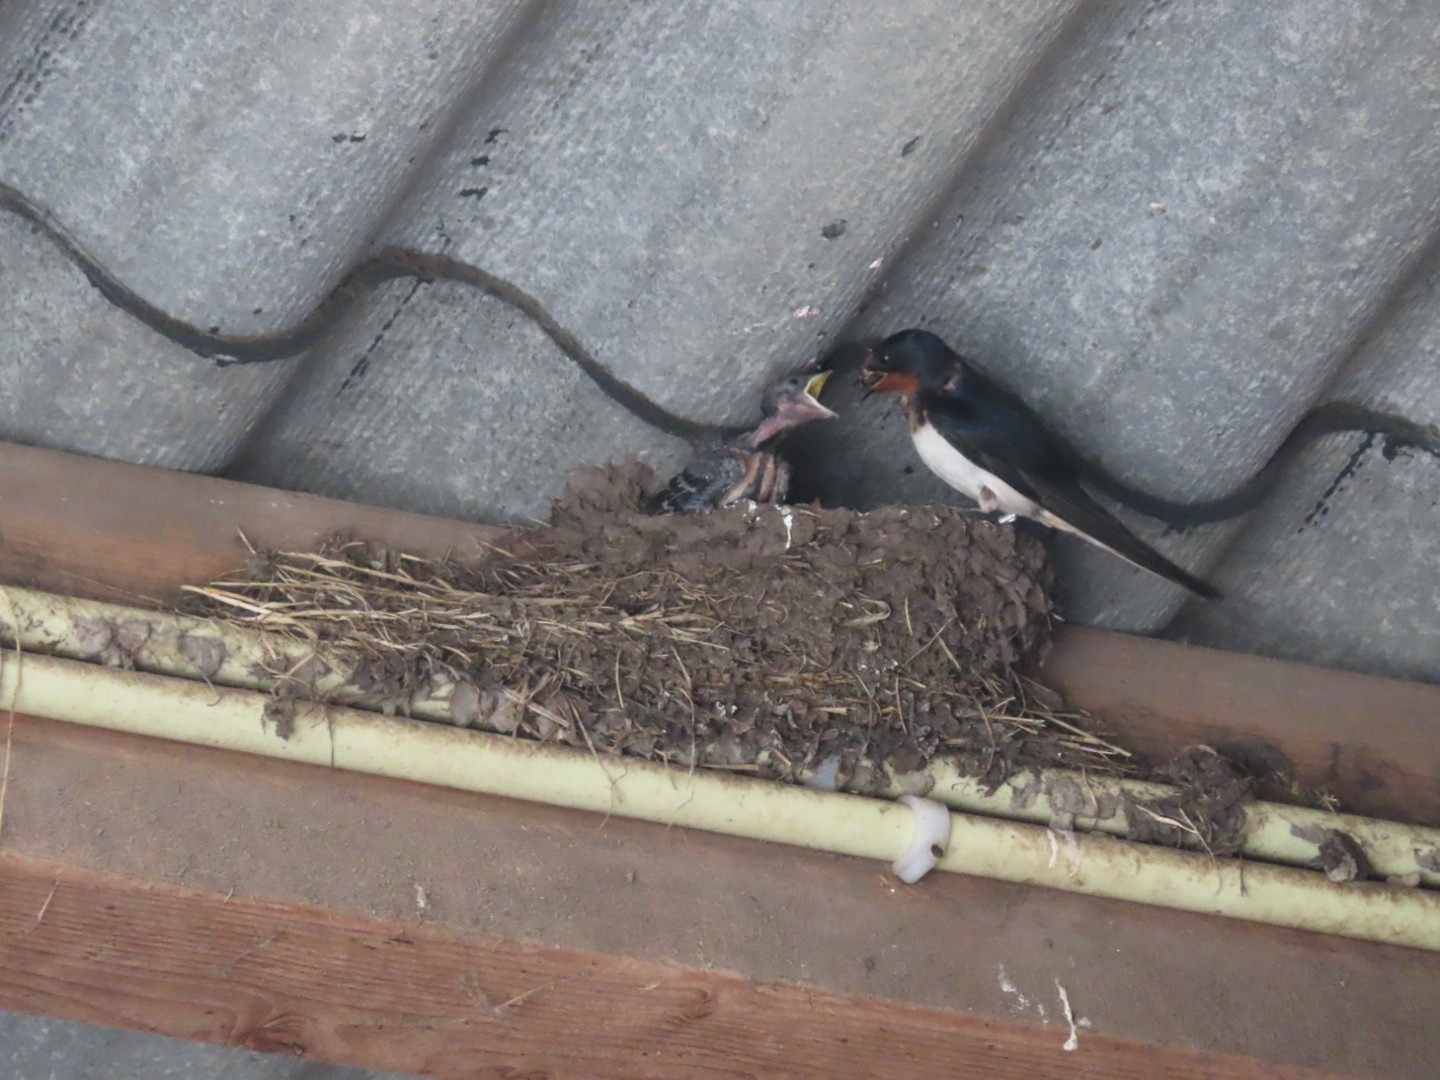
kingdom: Animalia
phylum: Chordata
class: Aves
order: Passeriformes
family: Hirundinidae
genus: Hirundo
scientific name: Hirundo rustica
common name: Barn swallow
